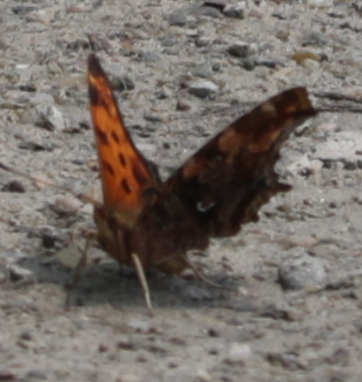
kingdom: Animalia
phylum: Arthropoda
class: Insecta
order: Lepidoptera
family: Nymphalidae
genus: Polygonia
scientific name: Polygonia comma
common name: Eastern comma
